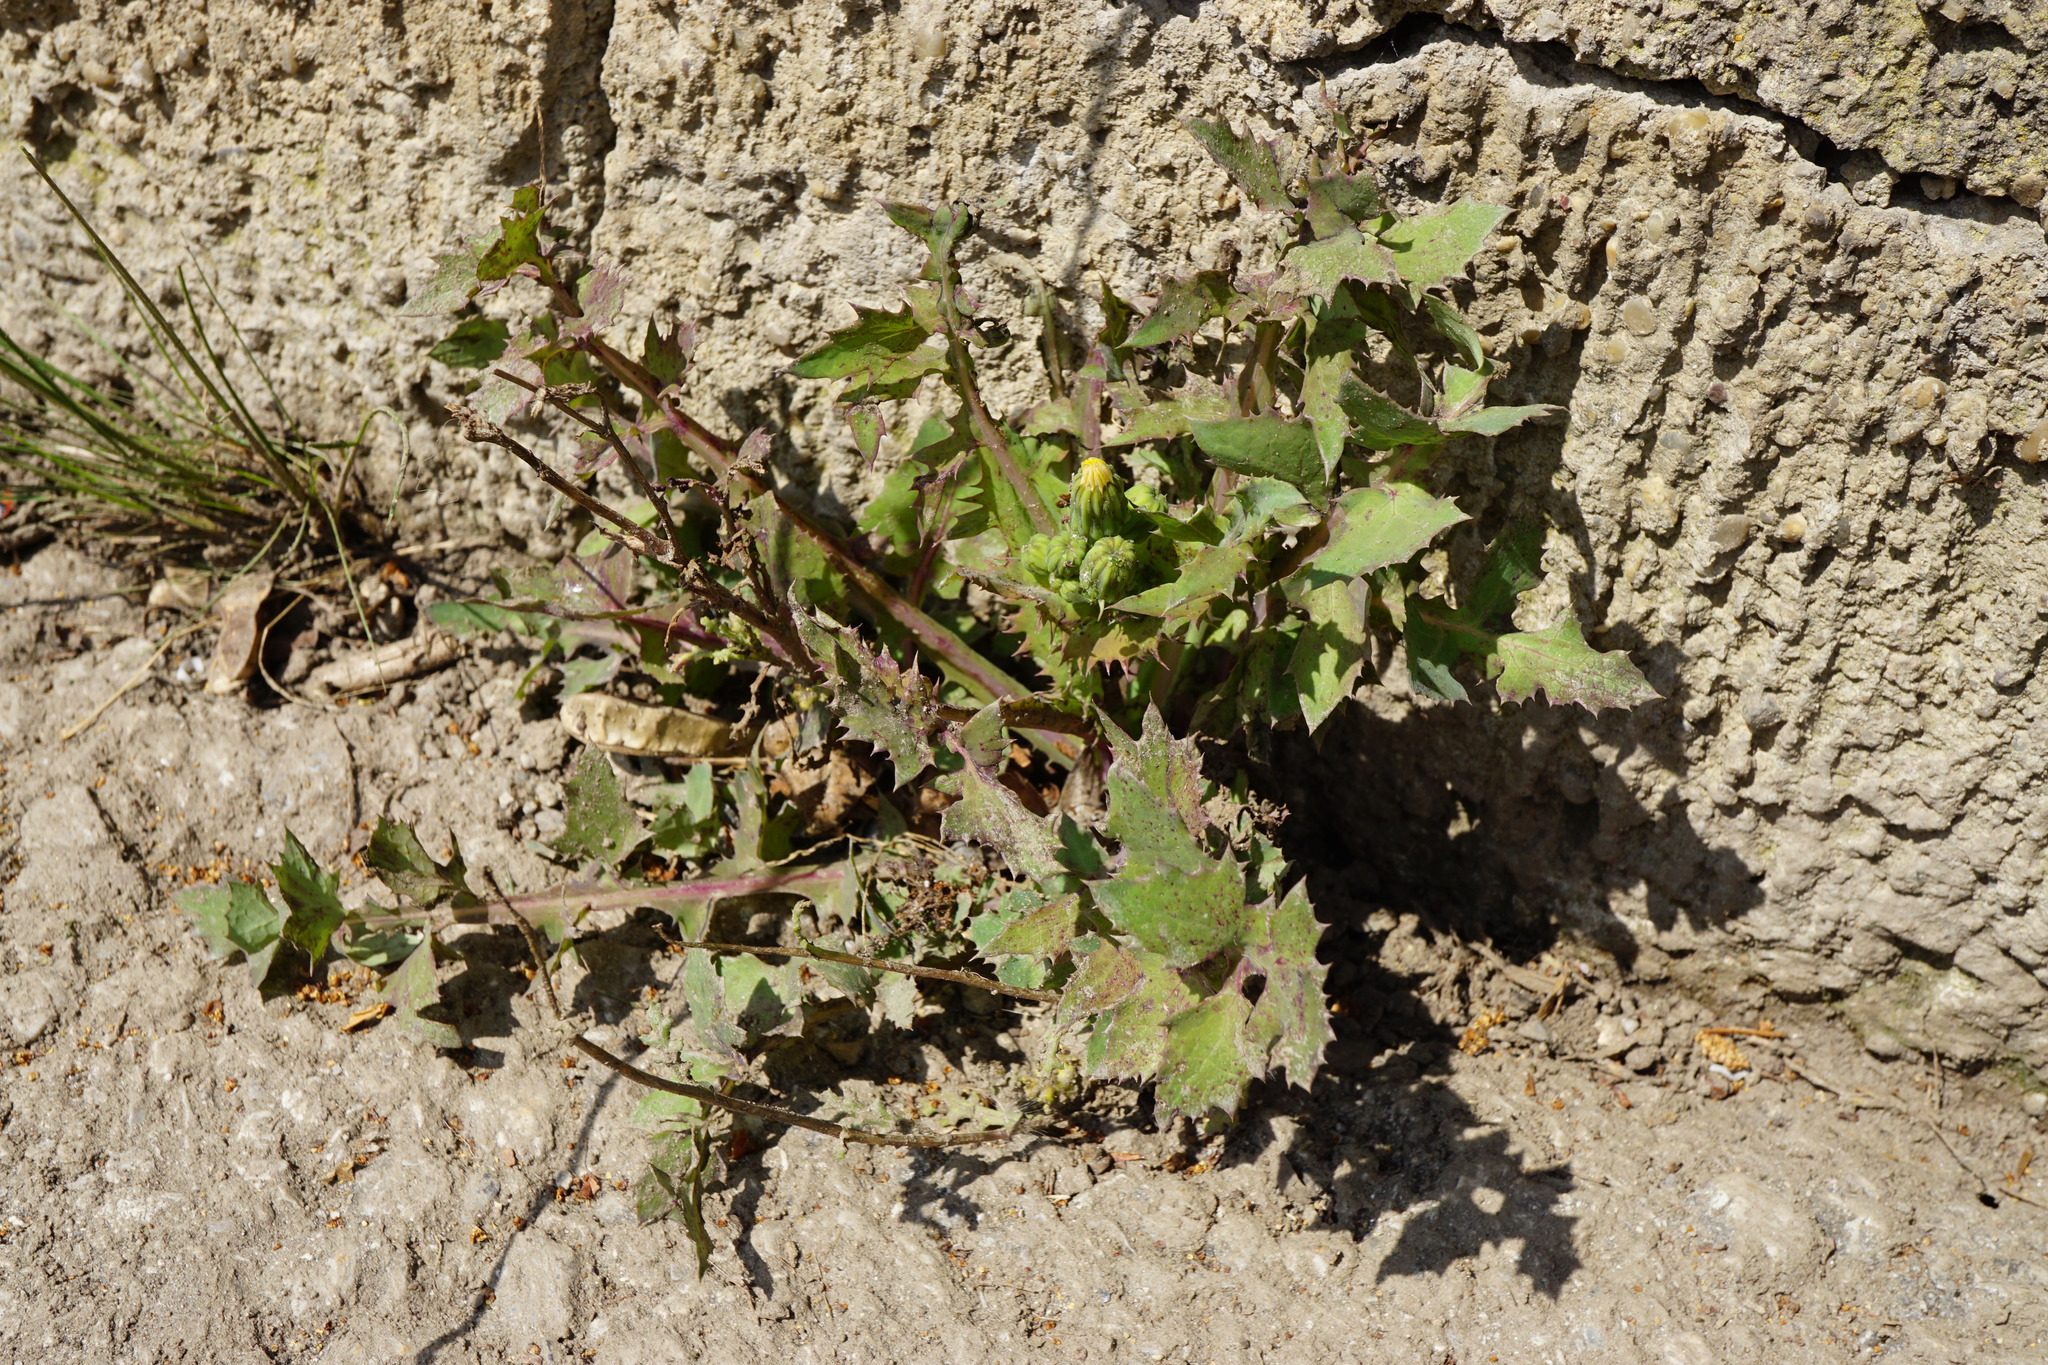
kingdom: Plantae
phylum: Tracheophyta
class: Magnoliopsida
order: Asterales
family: Asteraceae
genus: Sonchus
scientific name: Sonchus oleraceus
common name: Common sowthistle
